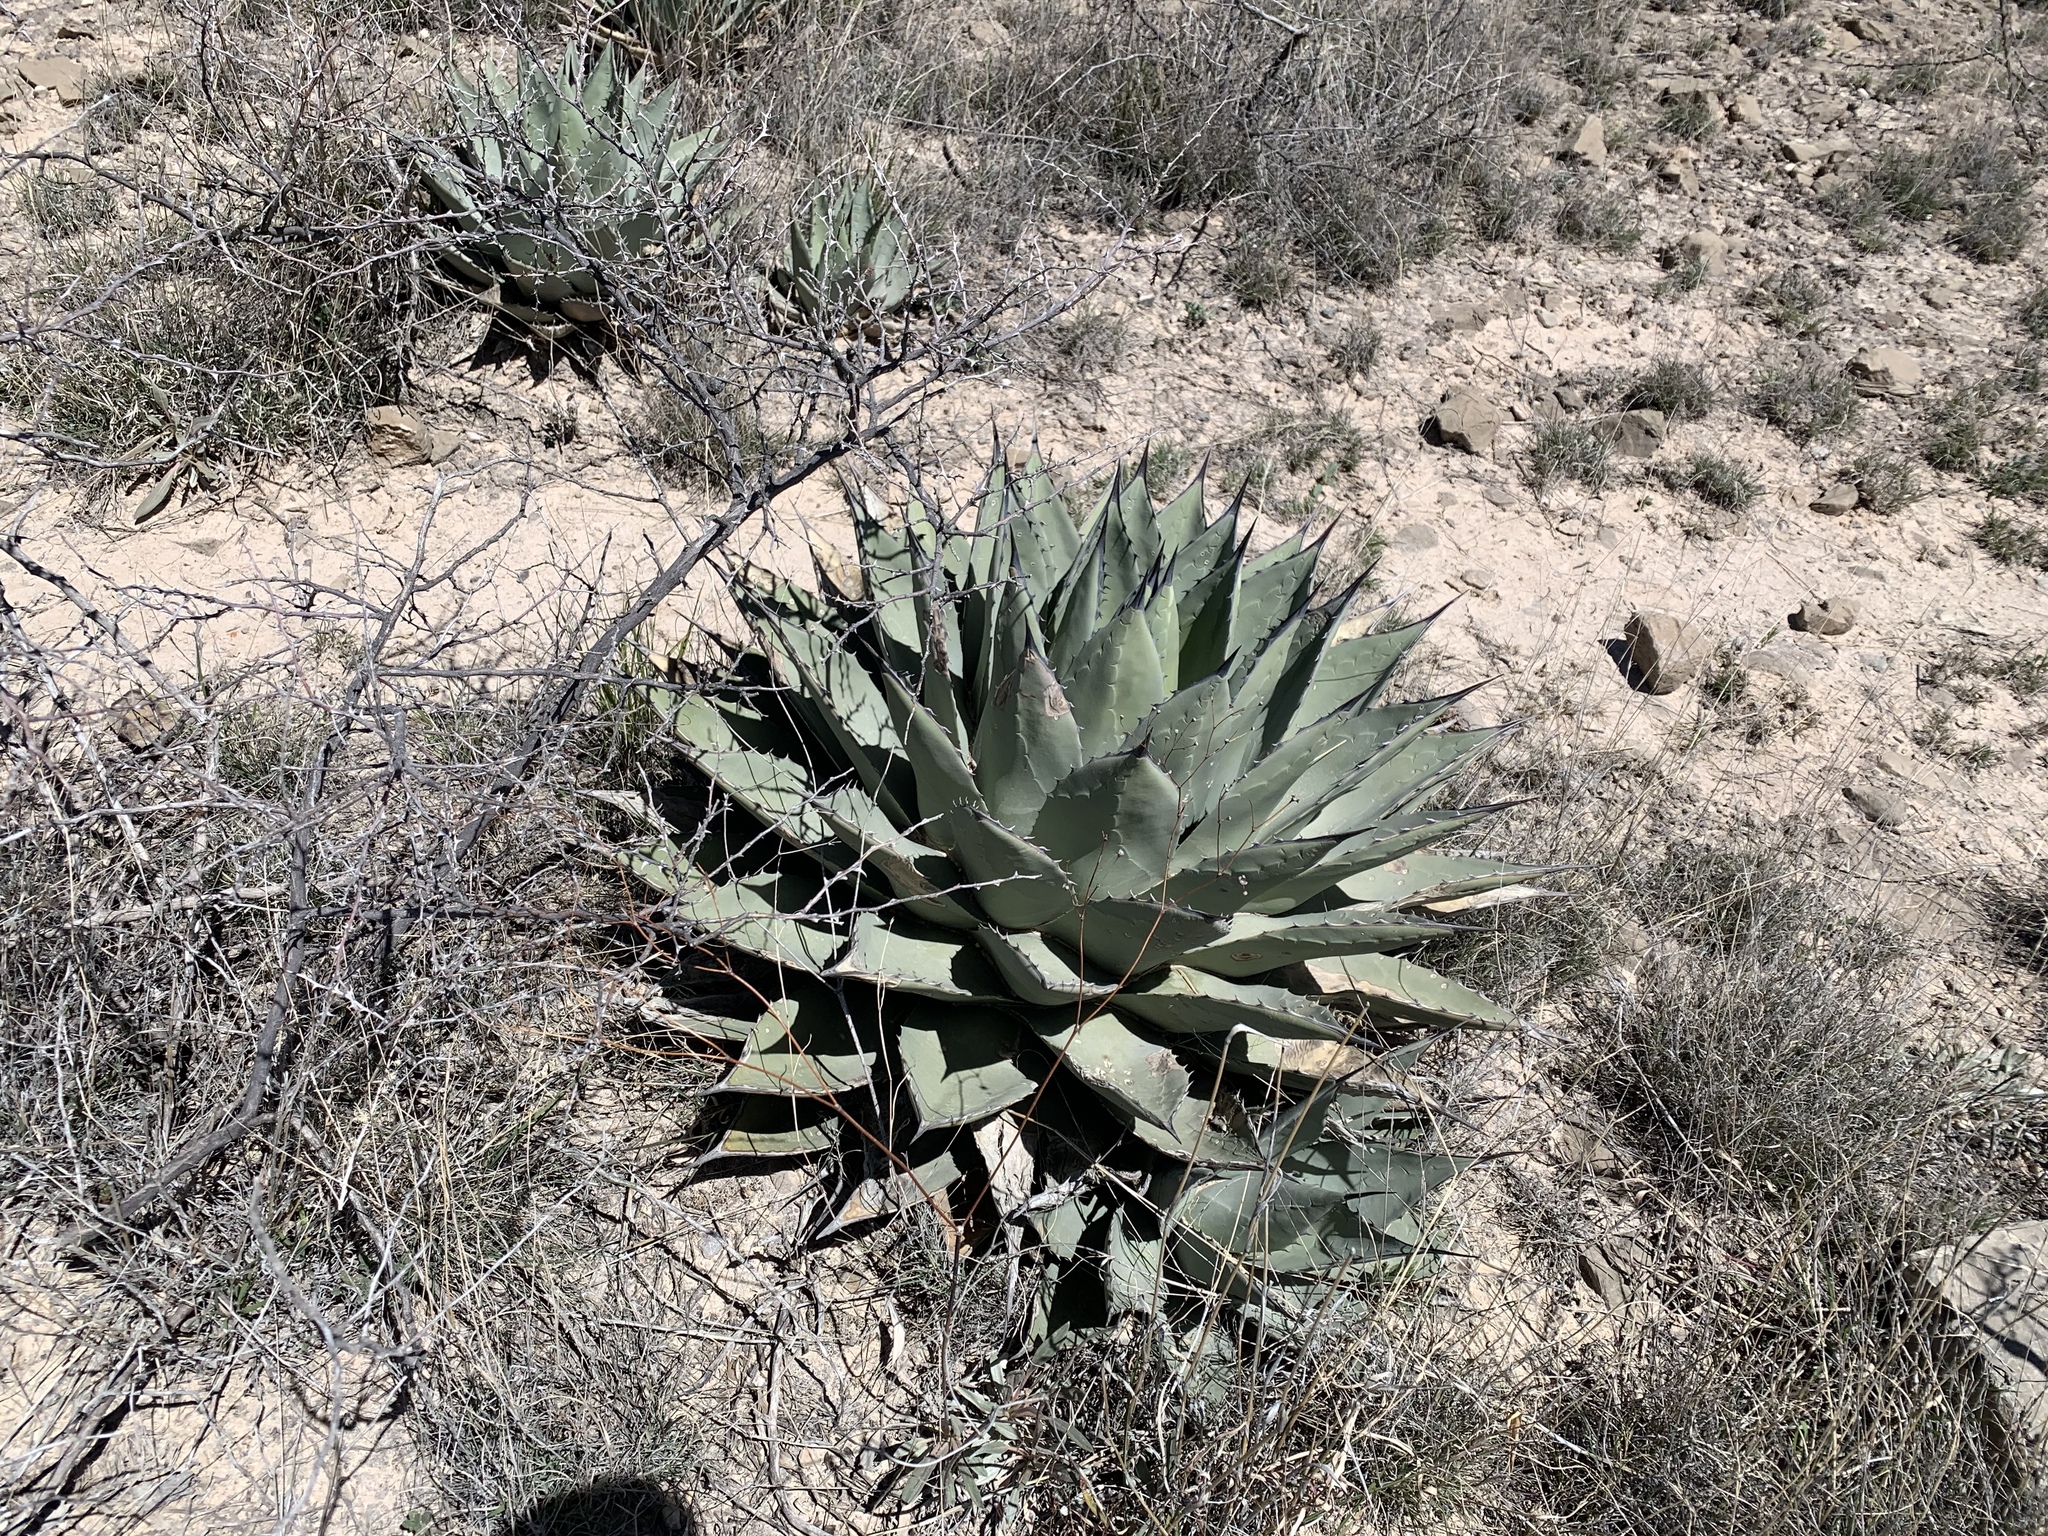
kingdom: Plantae
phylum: Tracheophyta
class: Liliopsida
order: Asparagales
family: Asparagaceae
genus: Agave
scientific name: Agave parryi
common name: Parry's agave
